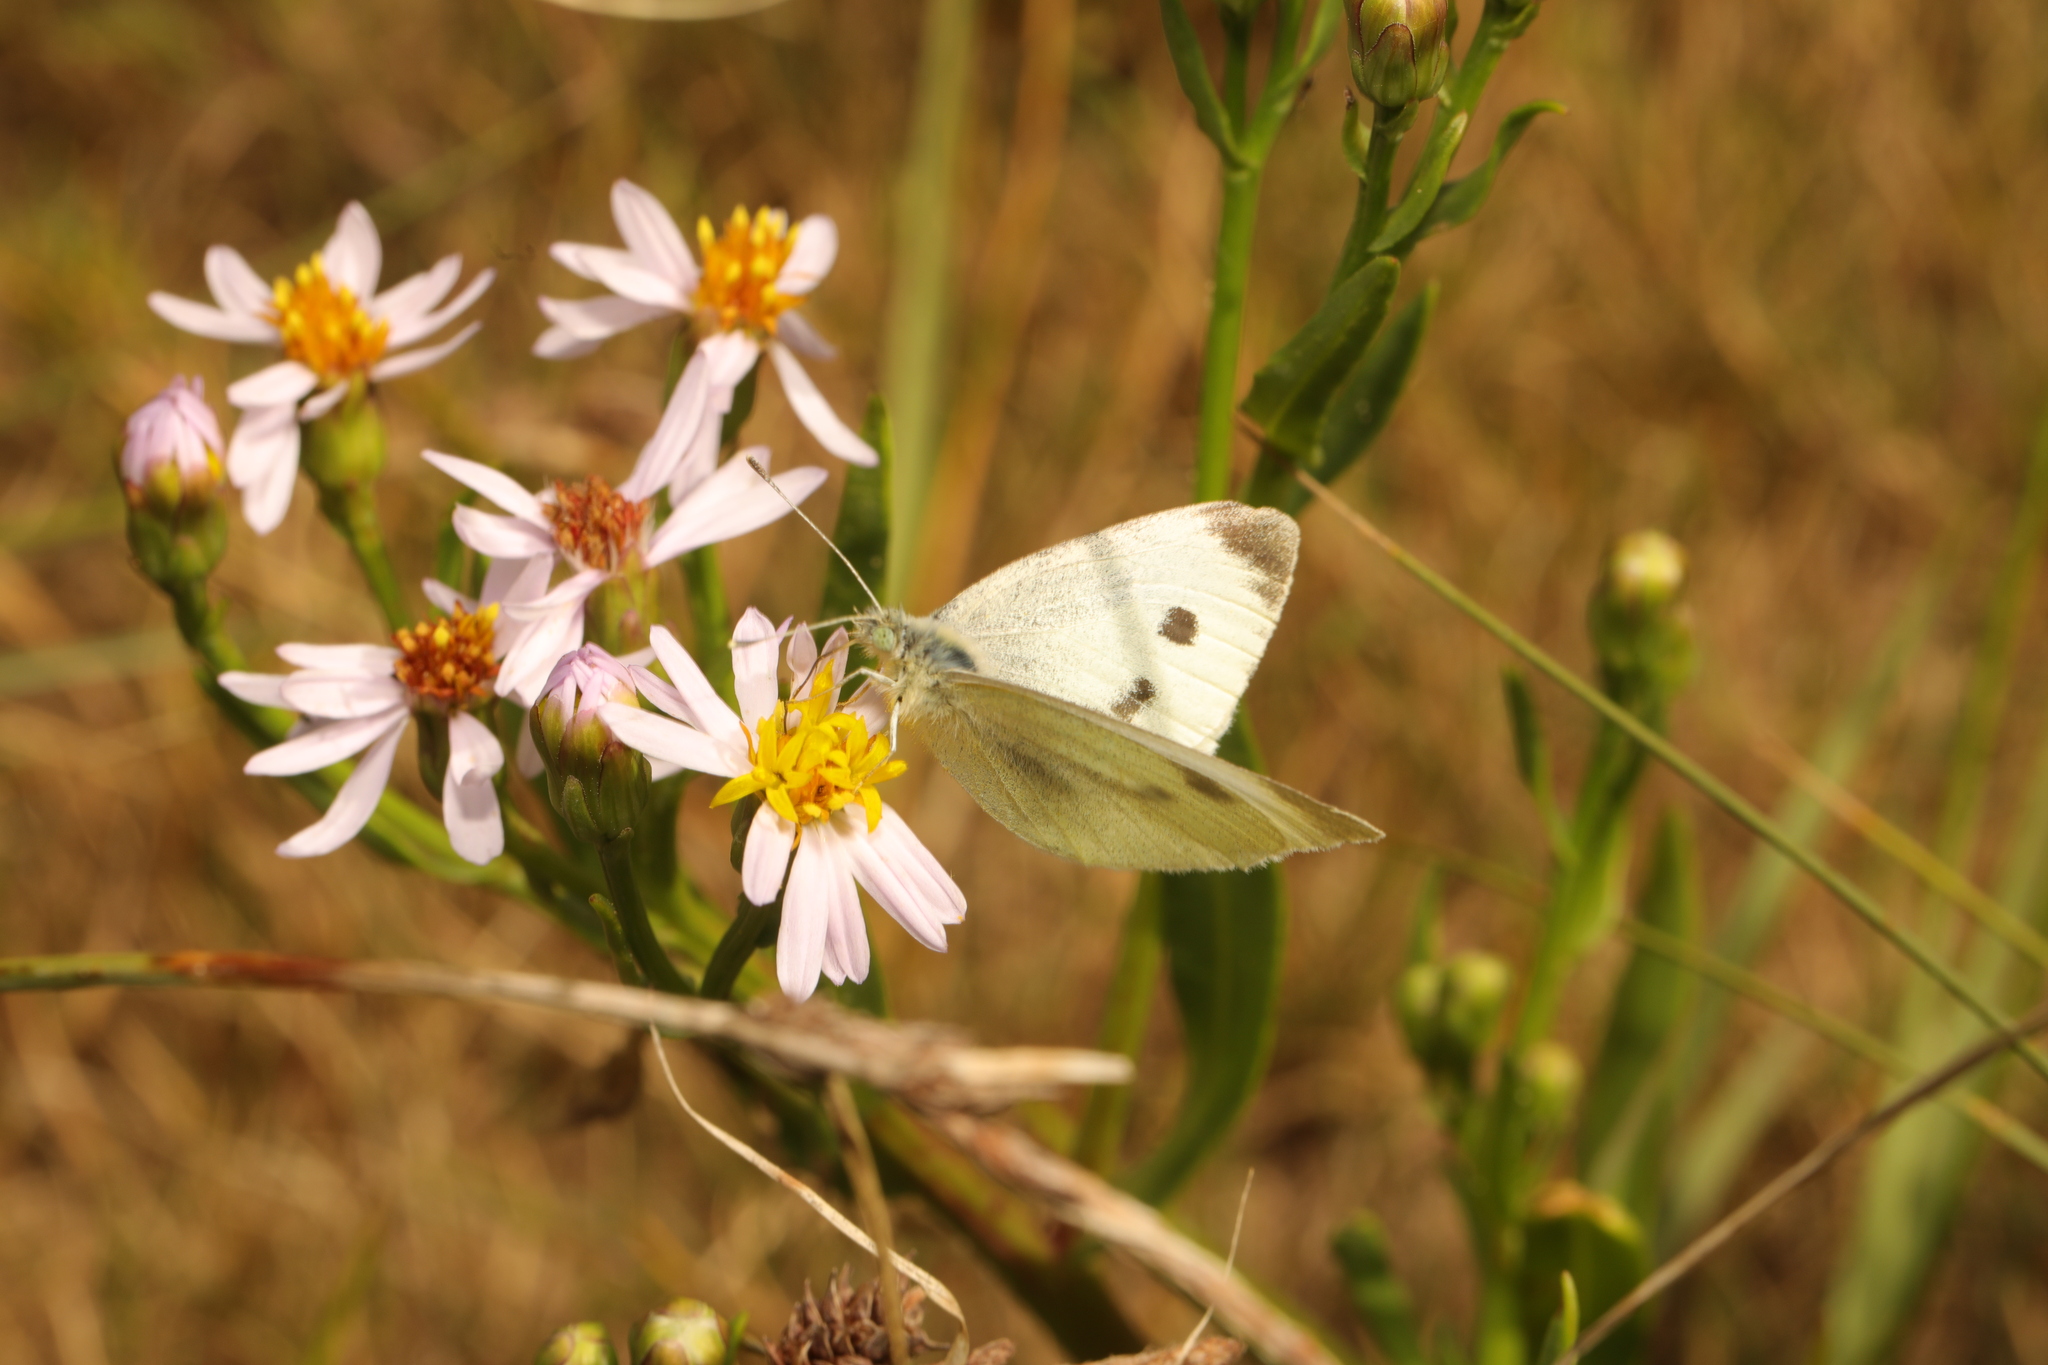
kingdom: Animalia
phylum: Arthropoda
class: Insecta
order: Lepidoptera
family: Pieridae
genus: Pieris
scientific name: Pieris rapae
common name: Small white
